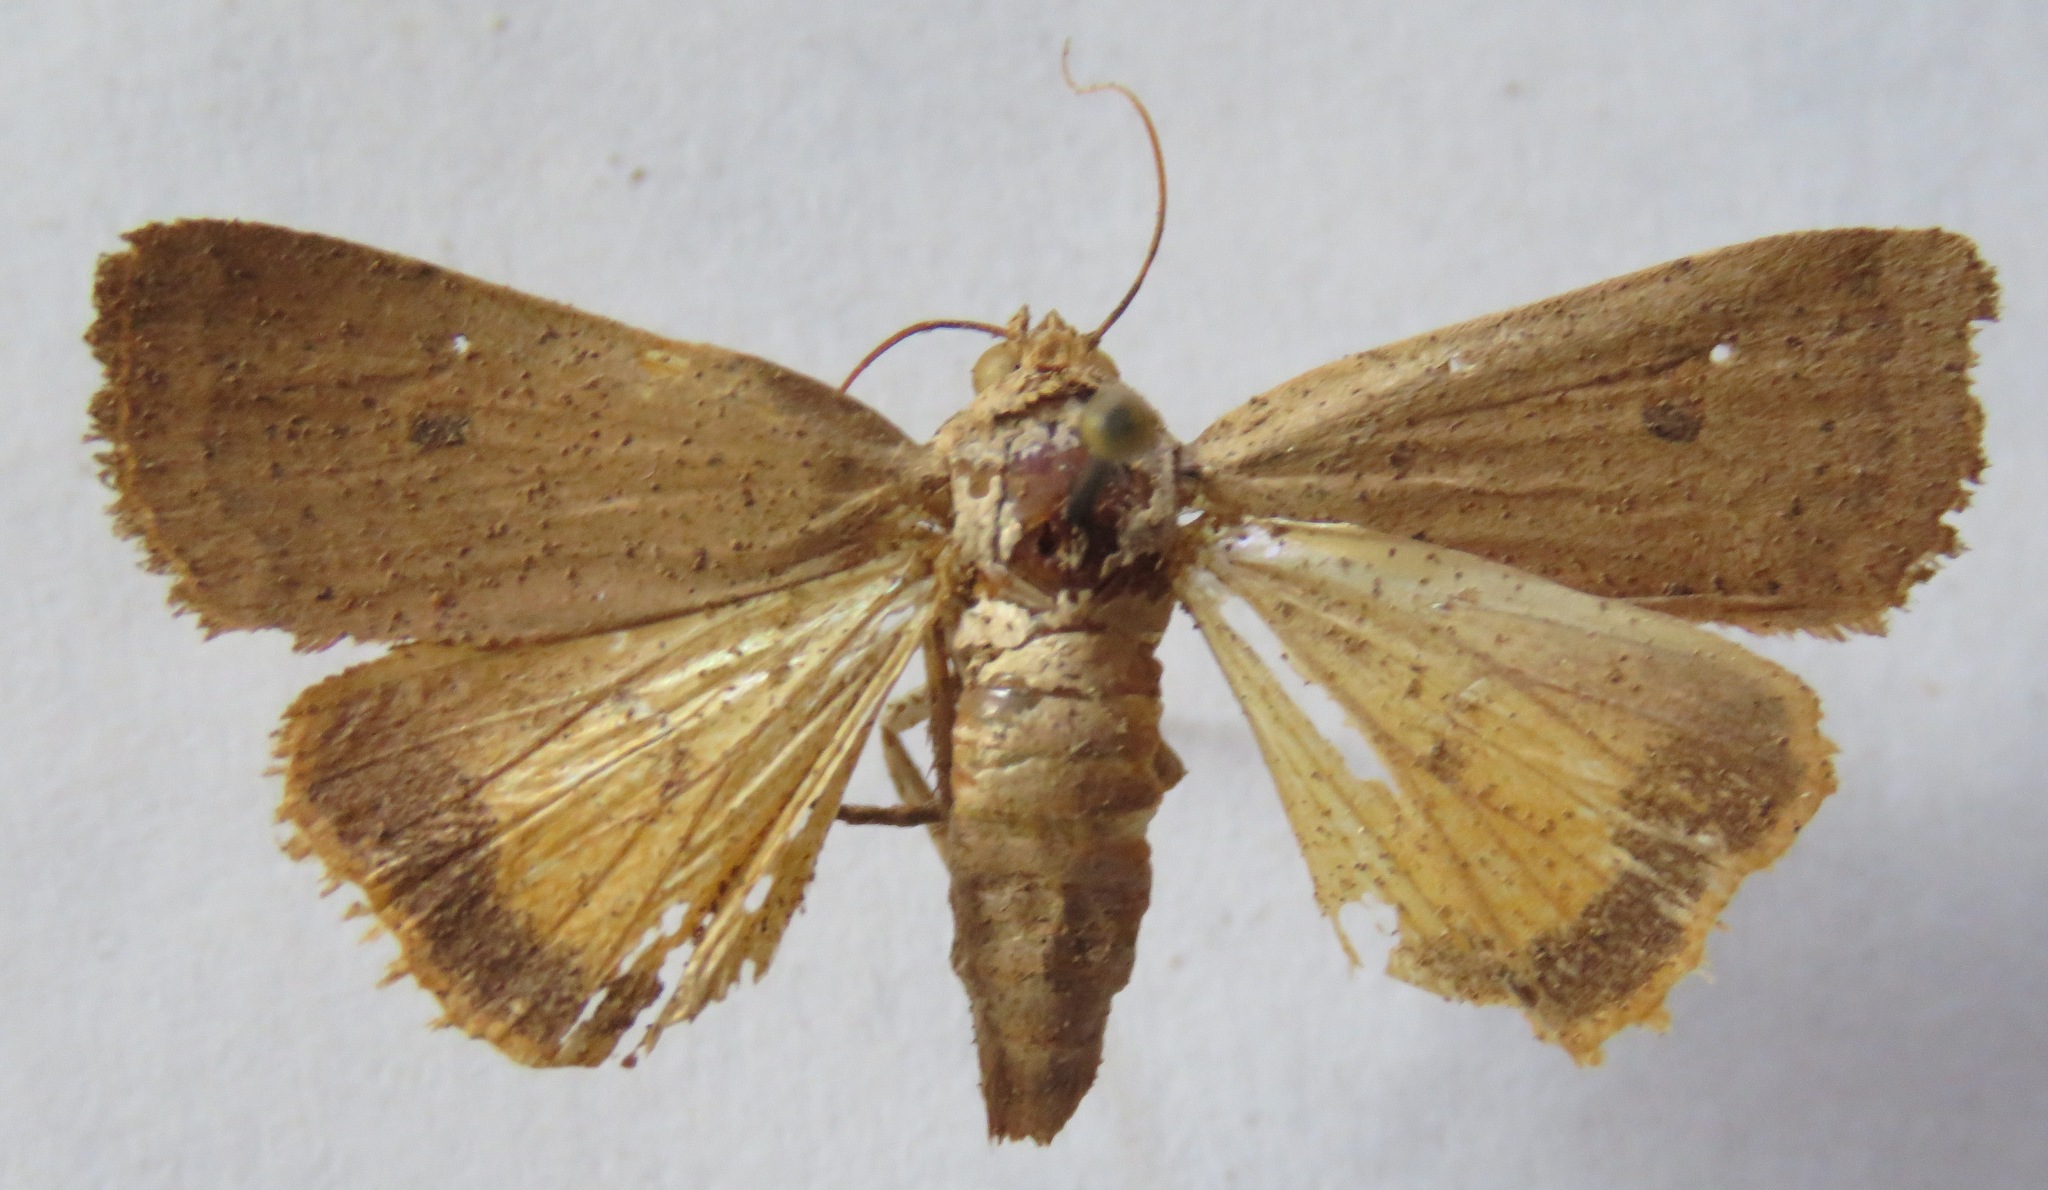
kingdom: Animalia
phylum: Arthropoda
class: Insecta
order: Lepidoptera
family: Noctuidae
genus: Noctua
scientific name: Noctua comes
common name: Lesser yellow underwing
